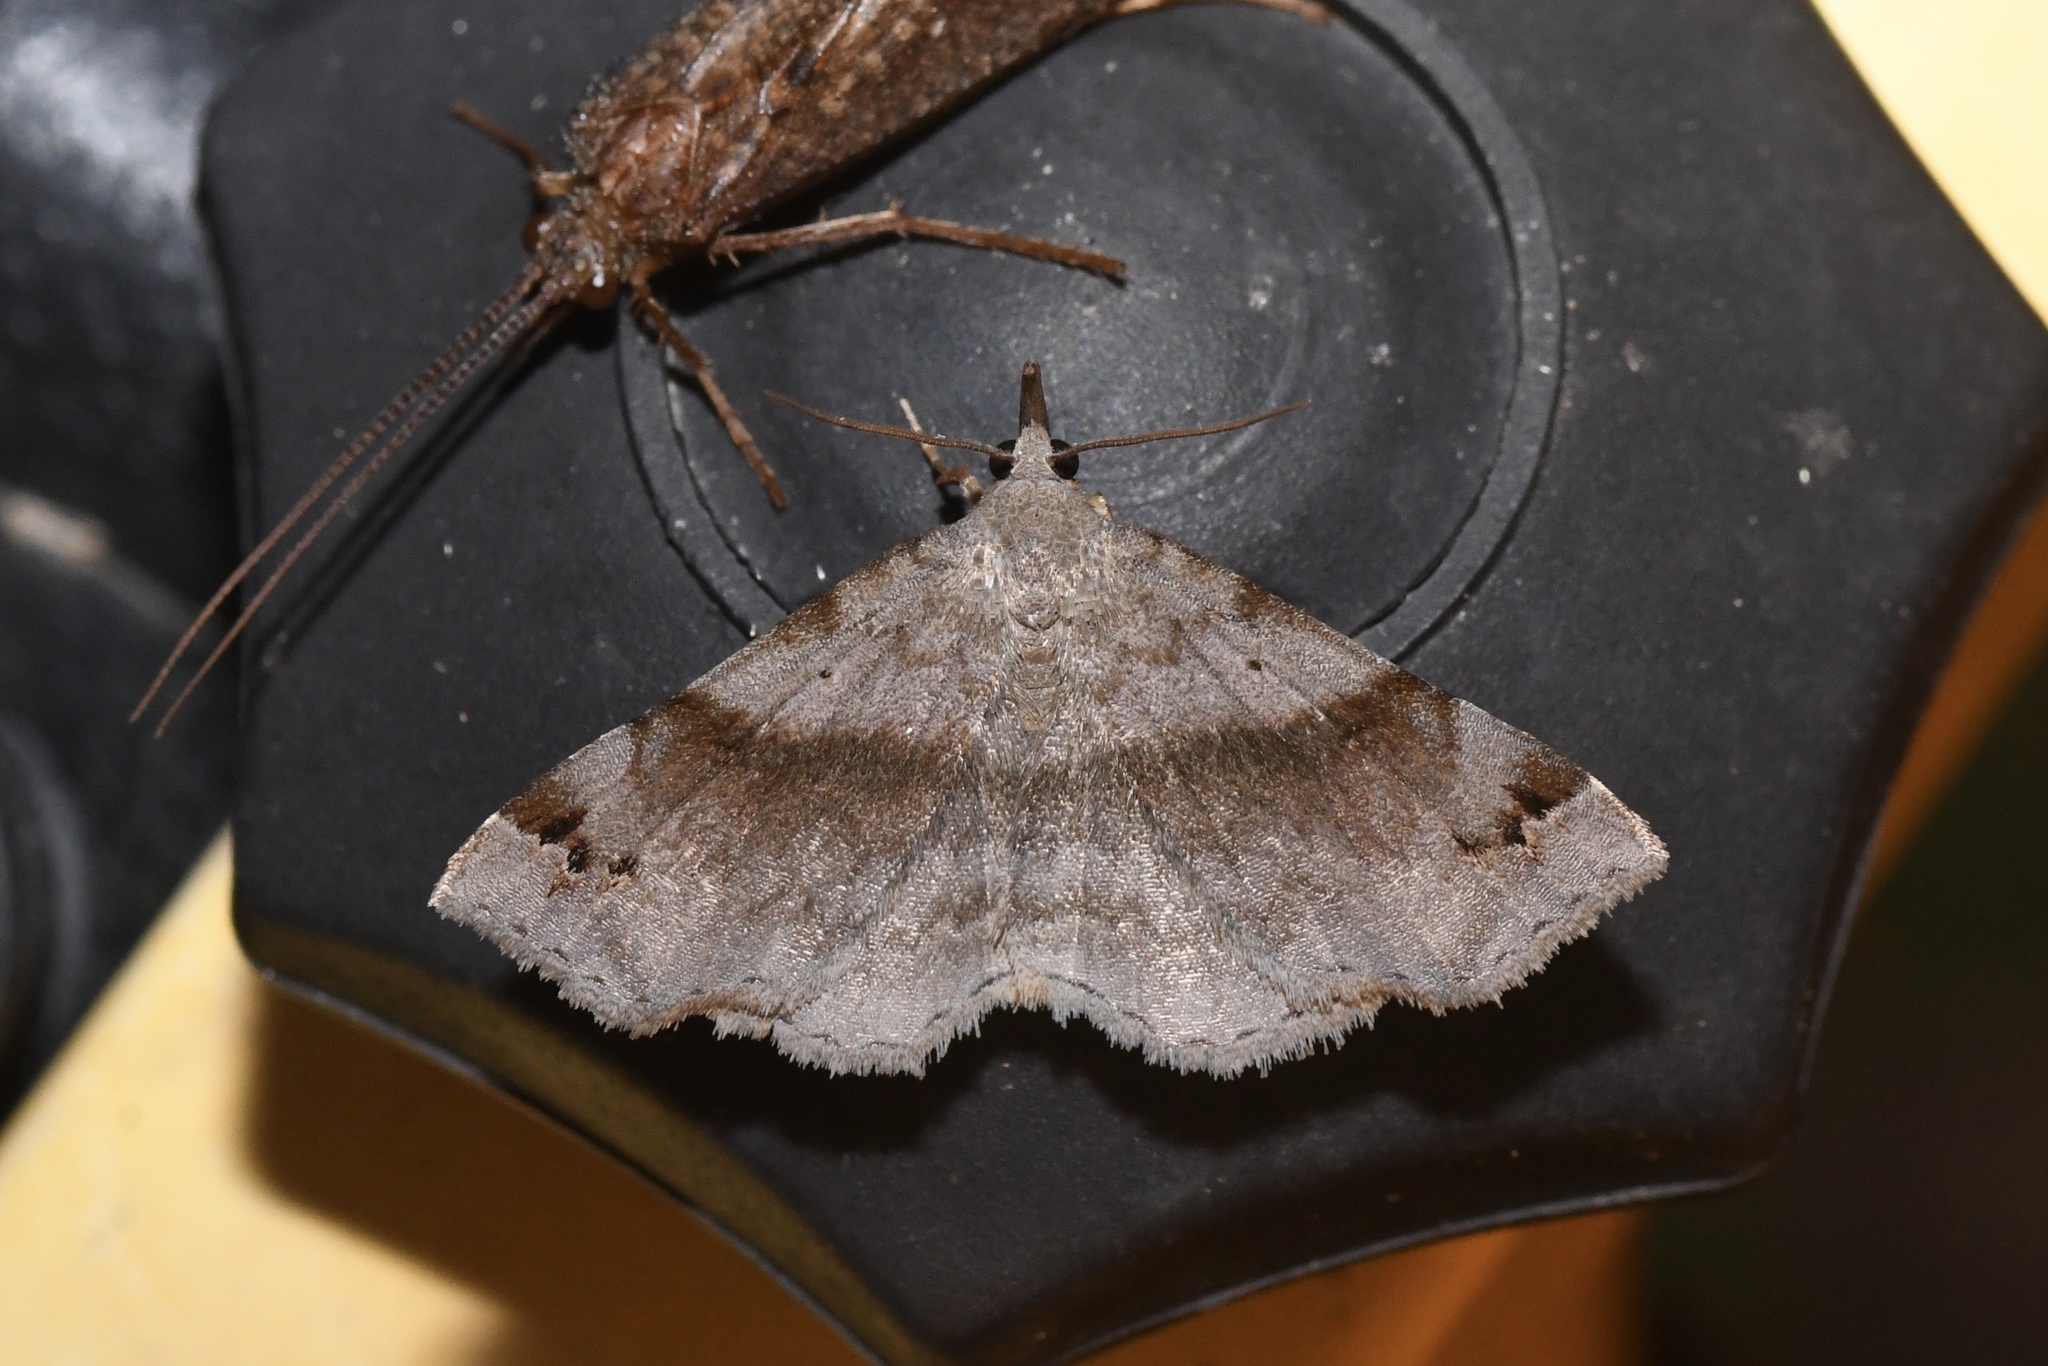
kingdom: Animalia
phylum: Arthropoda
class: Insecta
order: Lepidoptera
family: Erebidae
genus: Spargaloma
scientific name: Spargaloma sexpunctata
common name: Six-spotted gray
